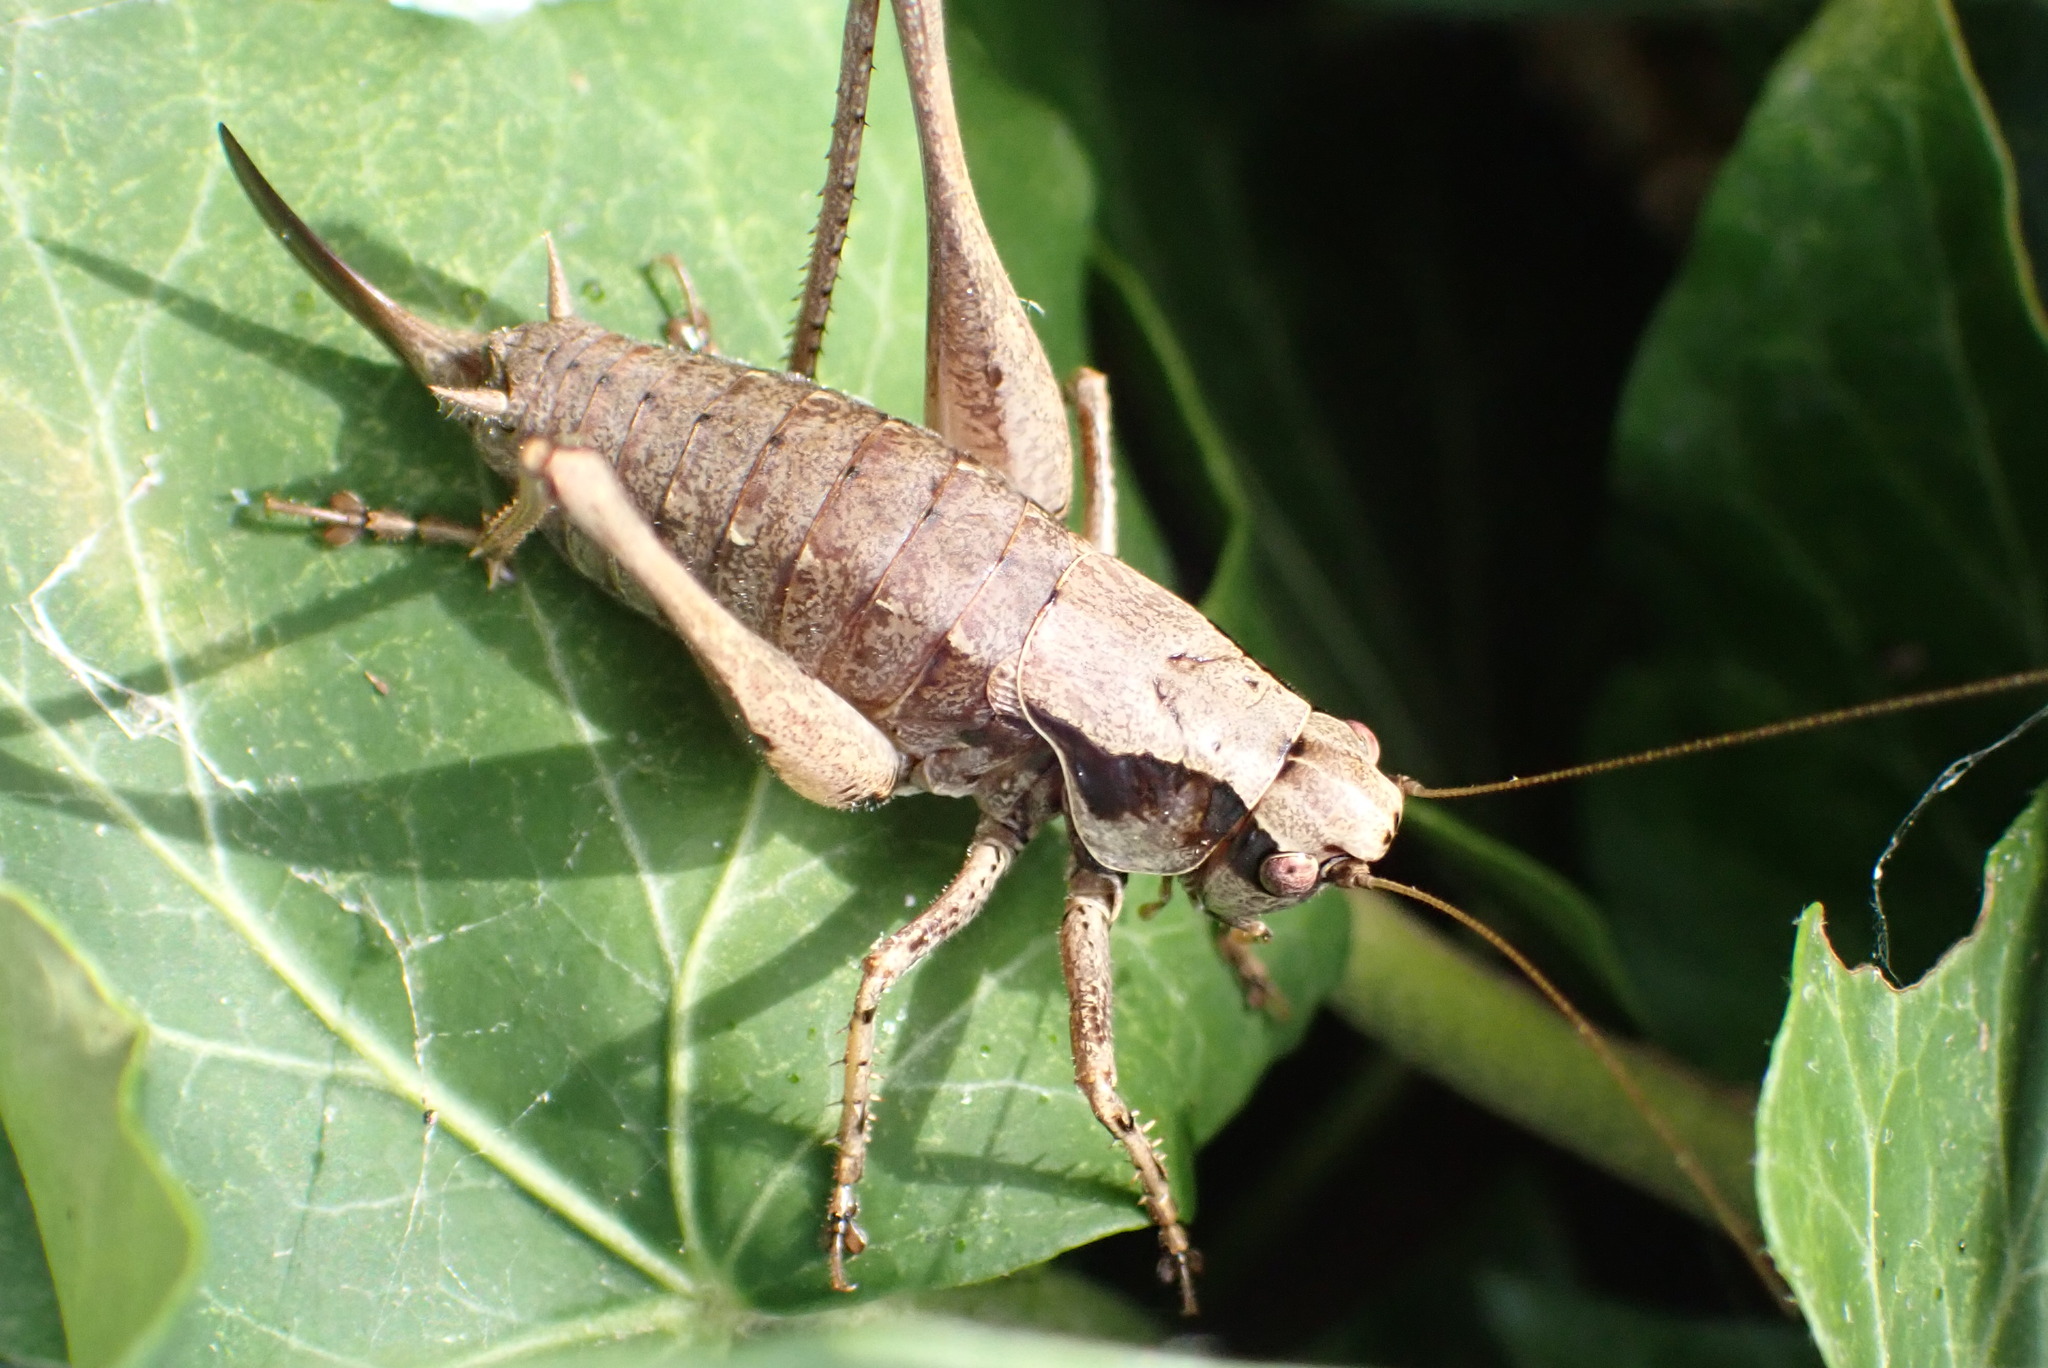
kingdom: Animalia
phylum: Arthropoda
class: Insecta
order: Orthoptera
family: Tettigoniidae
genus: Pholidoptera
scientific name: Pholidoptera griseoaptera
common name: Dark bush-cricket
